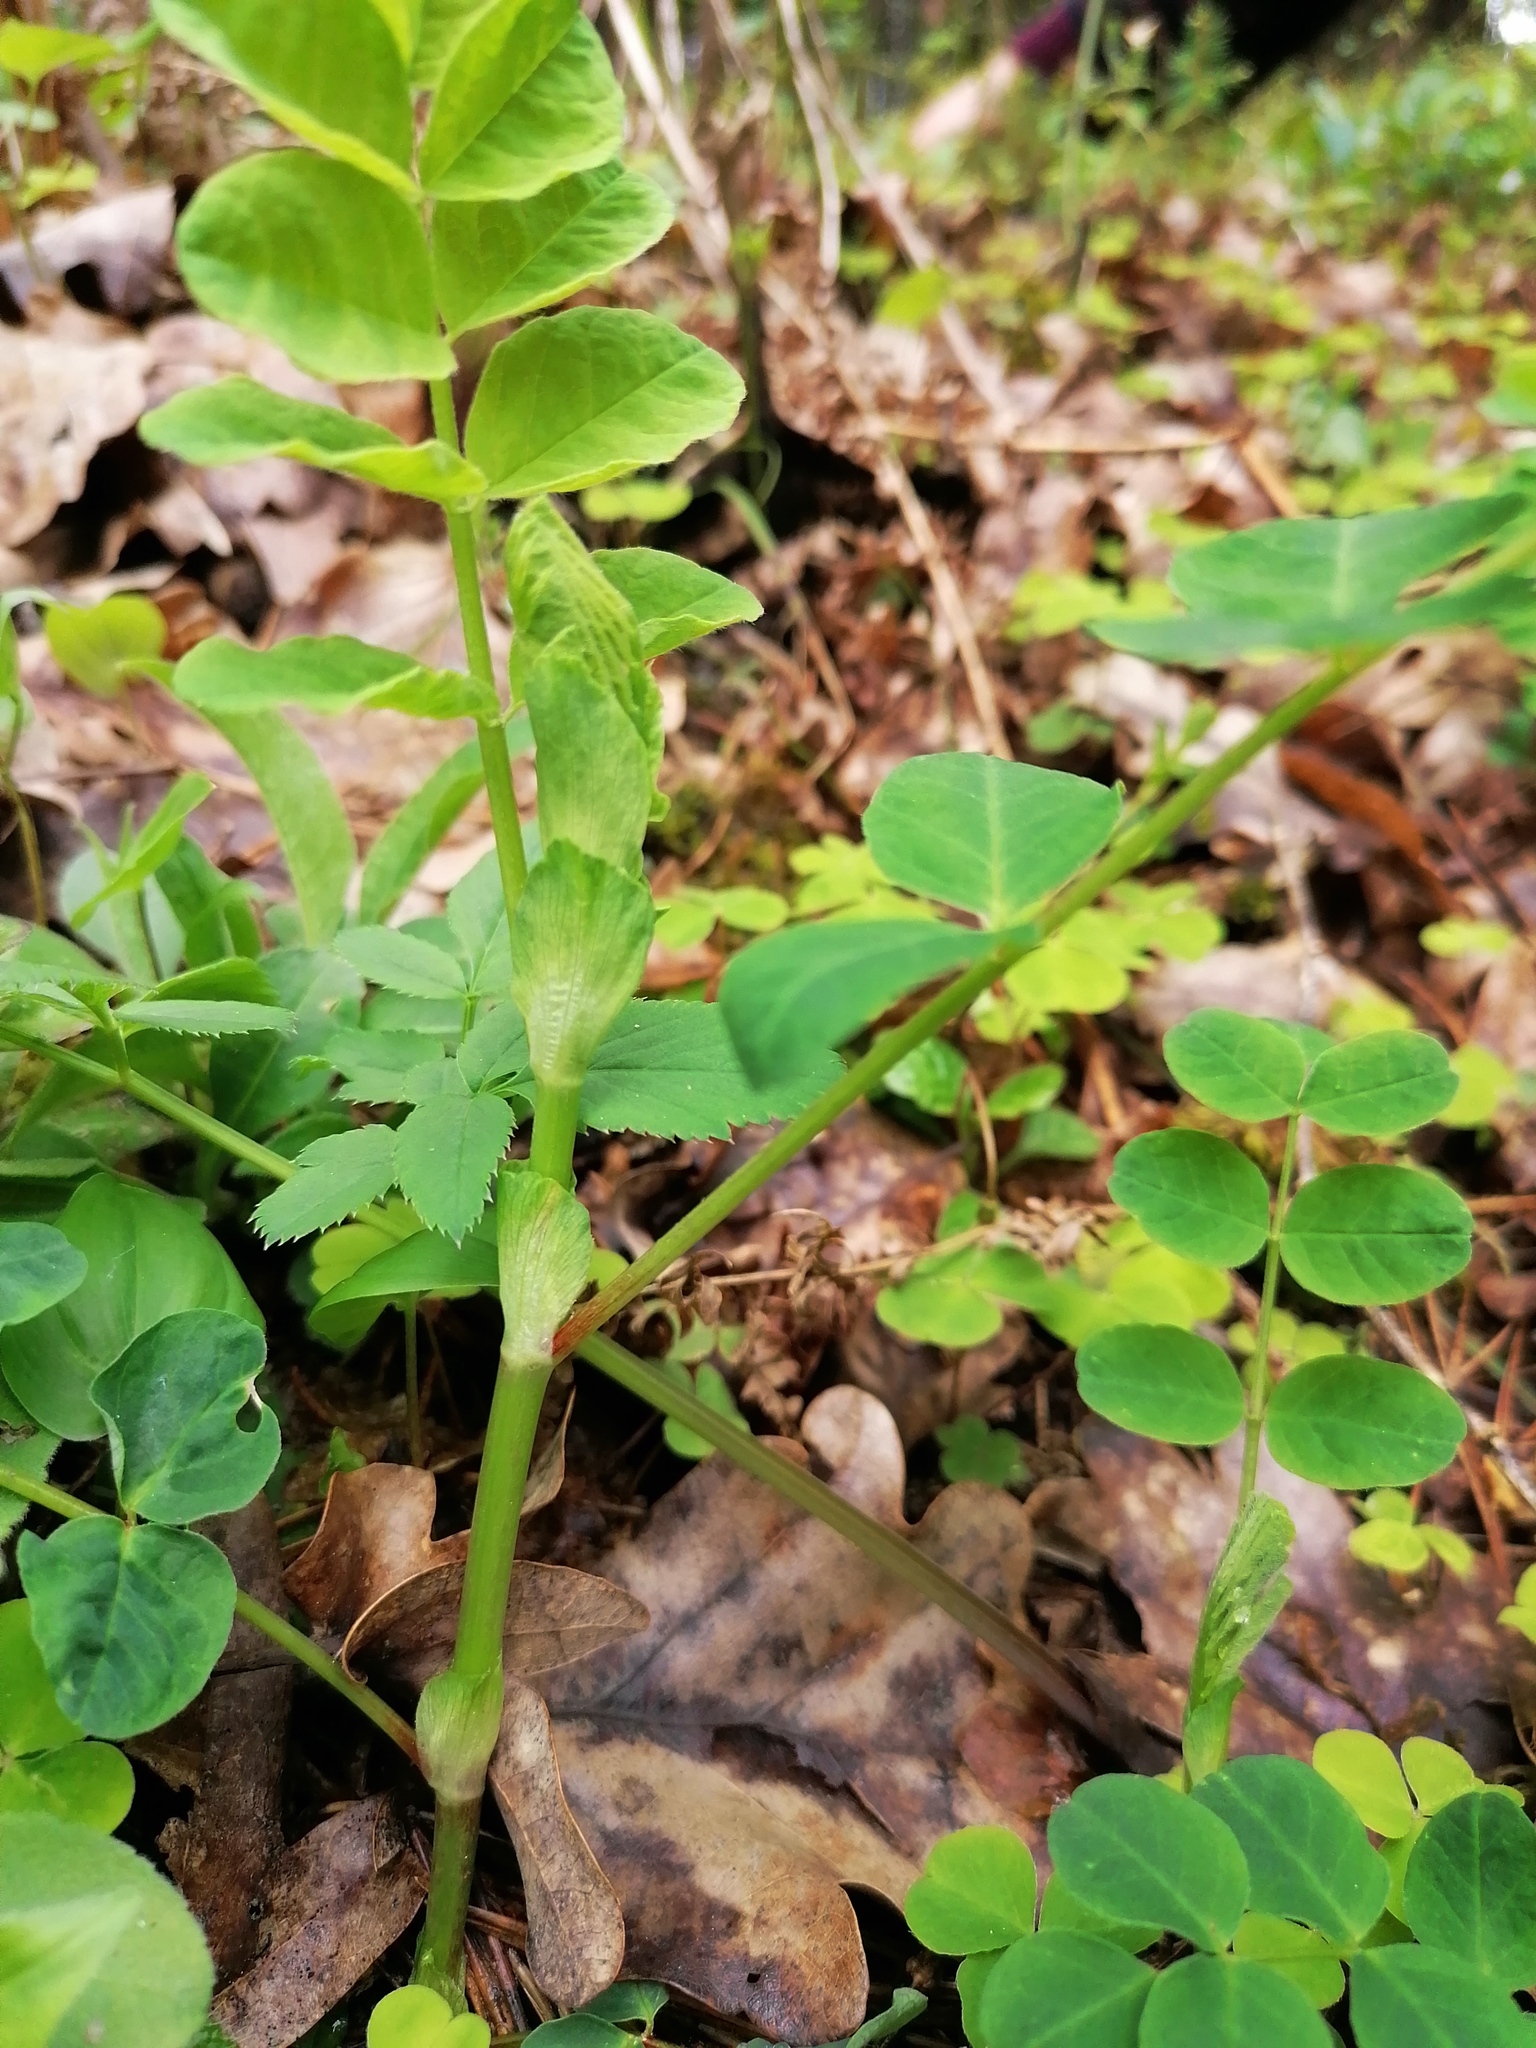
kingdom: Plantae
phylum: Tracheophyta
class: Magnoliopsida
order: Fabales
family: Fabaceae
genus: Astragalus
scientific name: Astragalus glycyphyllos
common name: Wild liquorice
